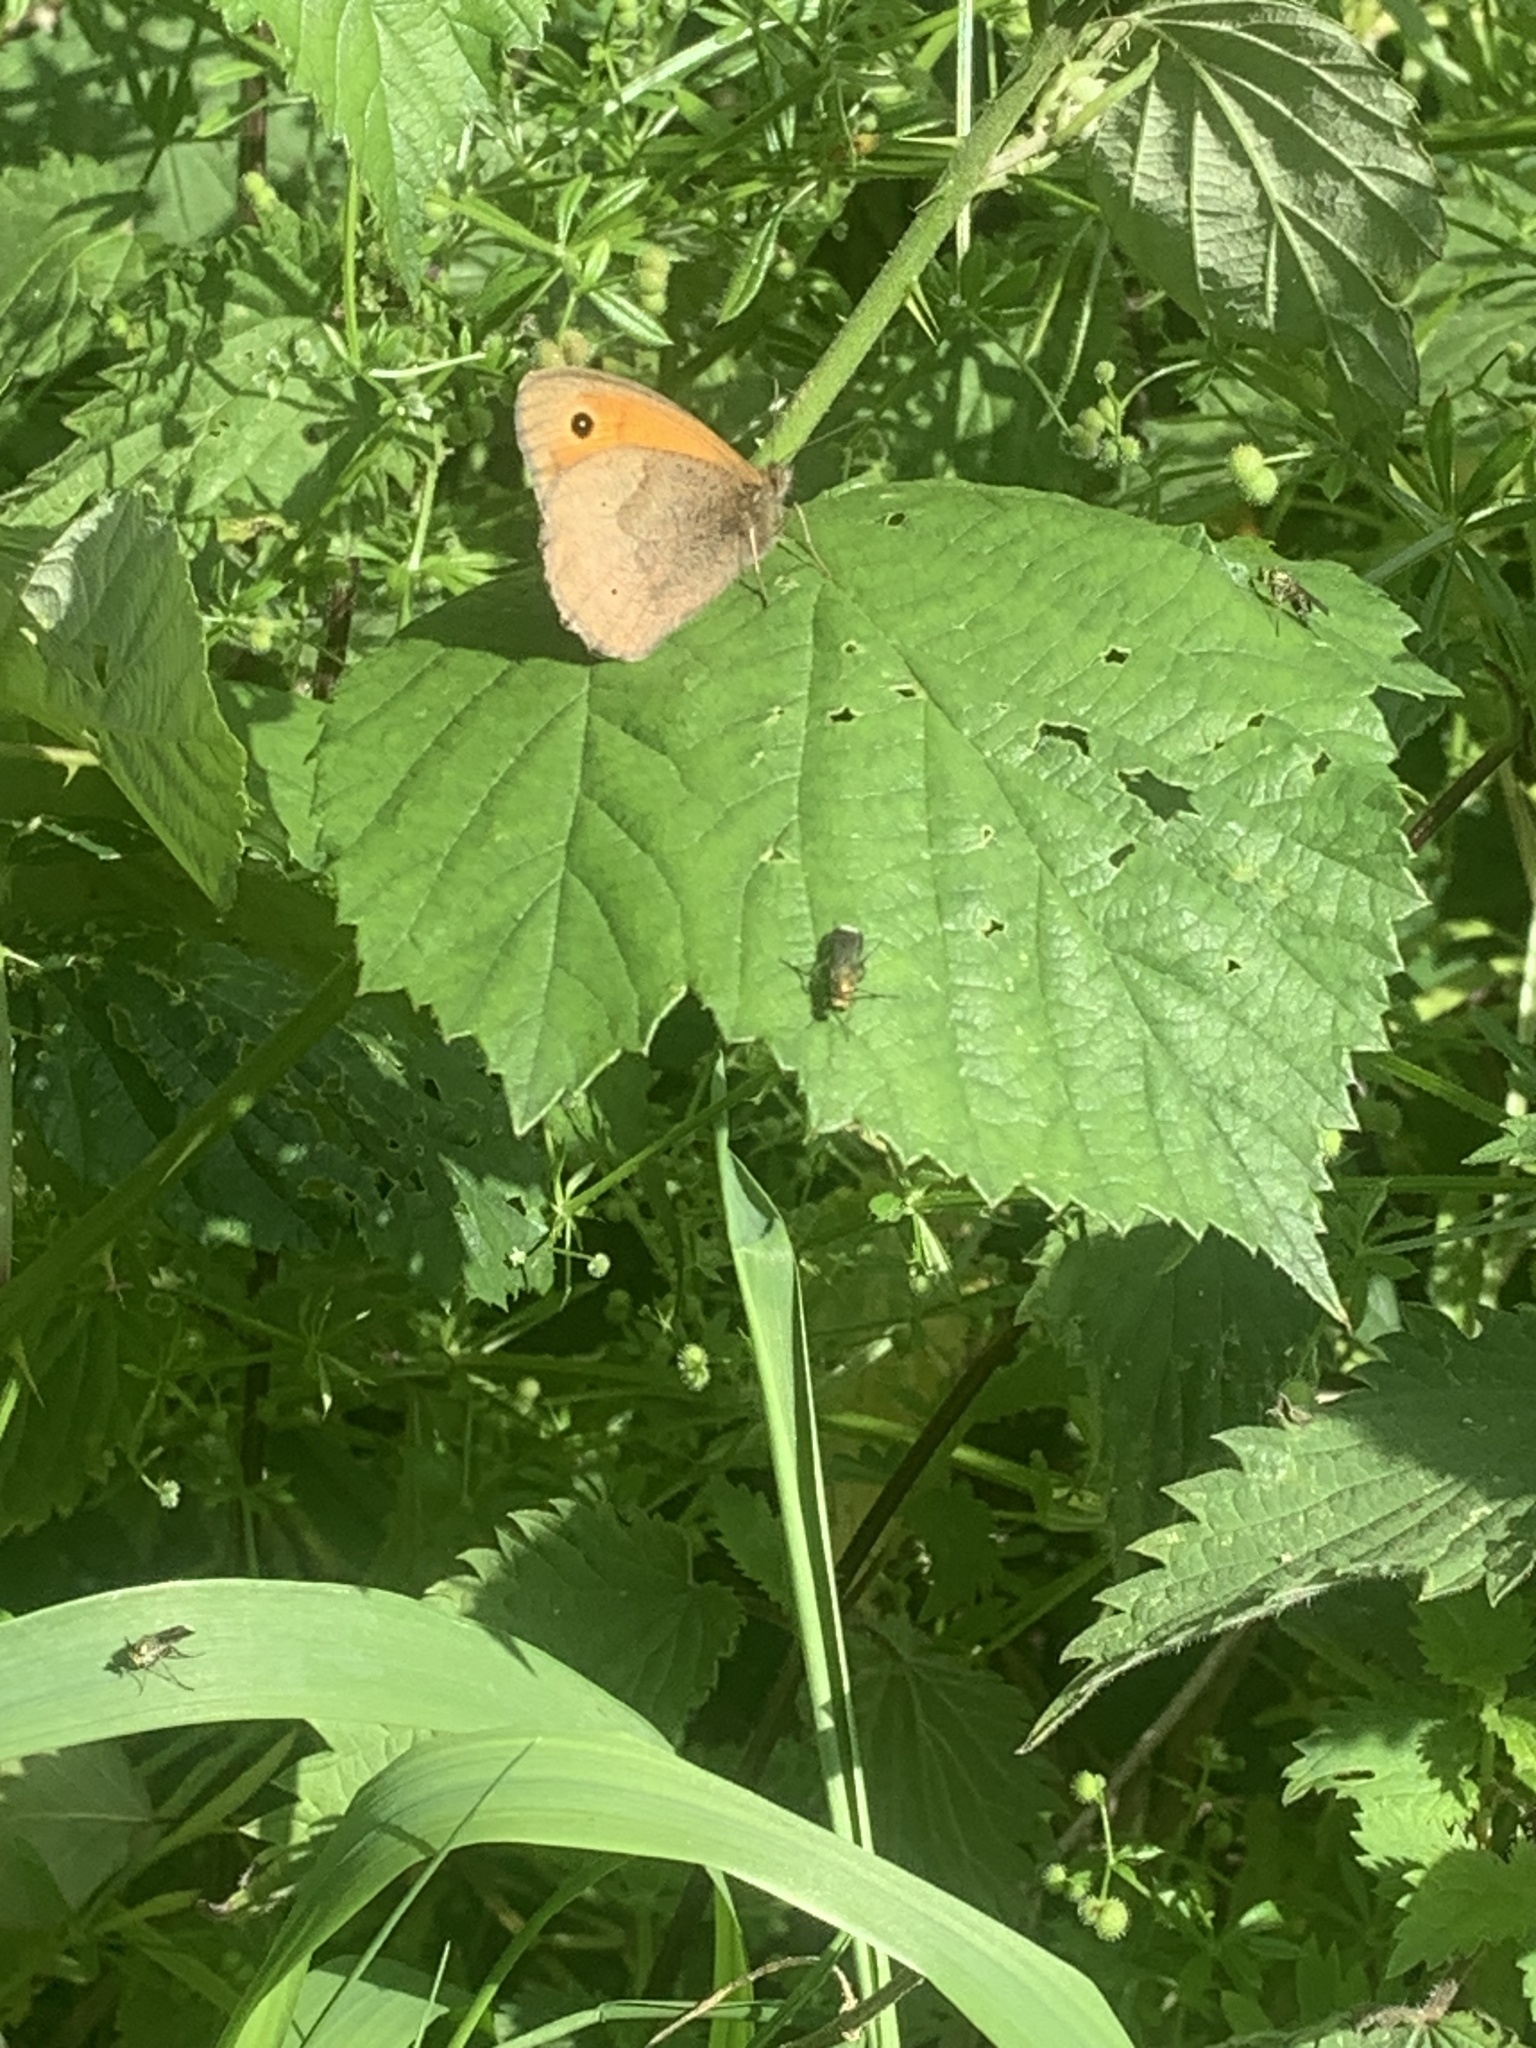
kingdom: Animalia
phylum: Arthropoda
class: Insecta
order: Lepidoptera
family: Nymphalidae
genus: Maniola
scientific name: Maniola jurtina
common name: Meadow brown
